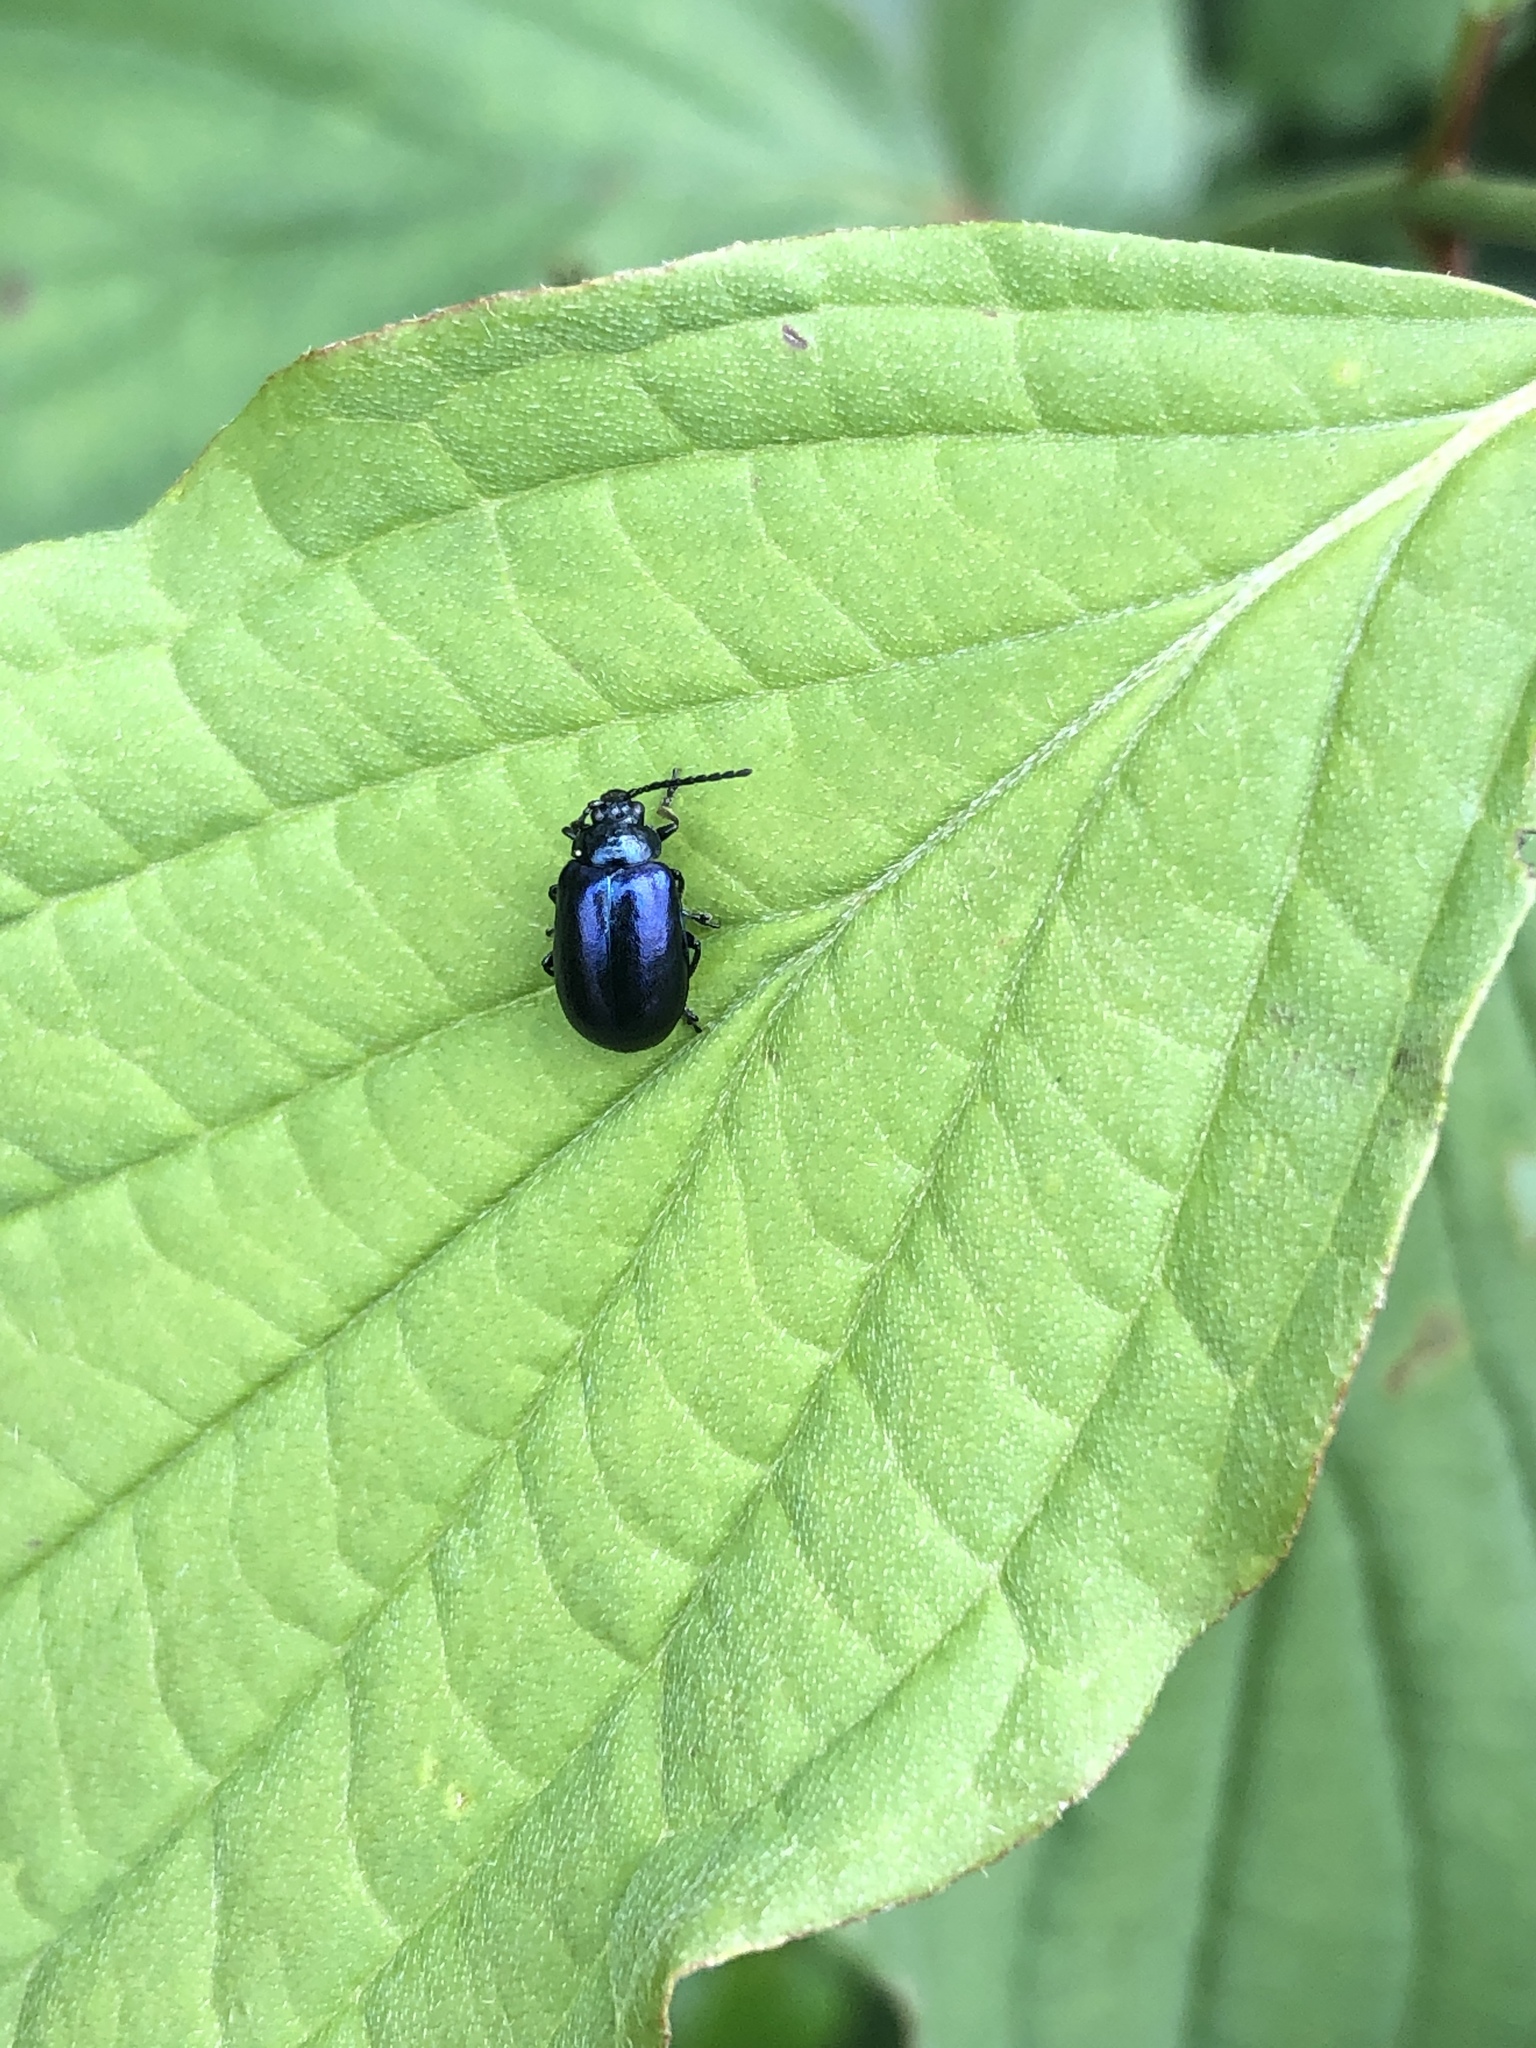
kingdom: Animalia
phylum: Arthropoda
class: Insecta
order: Coleoptera
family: Chrysomelidae
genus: Agelastica
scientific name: Agelastica alni
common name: Alder leaf beetle
